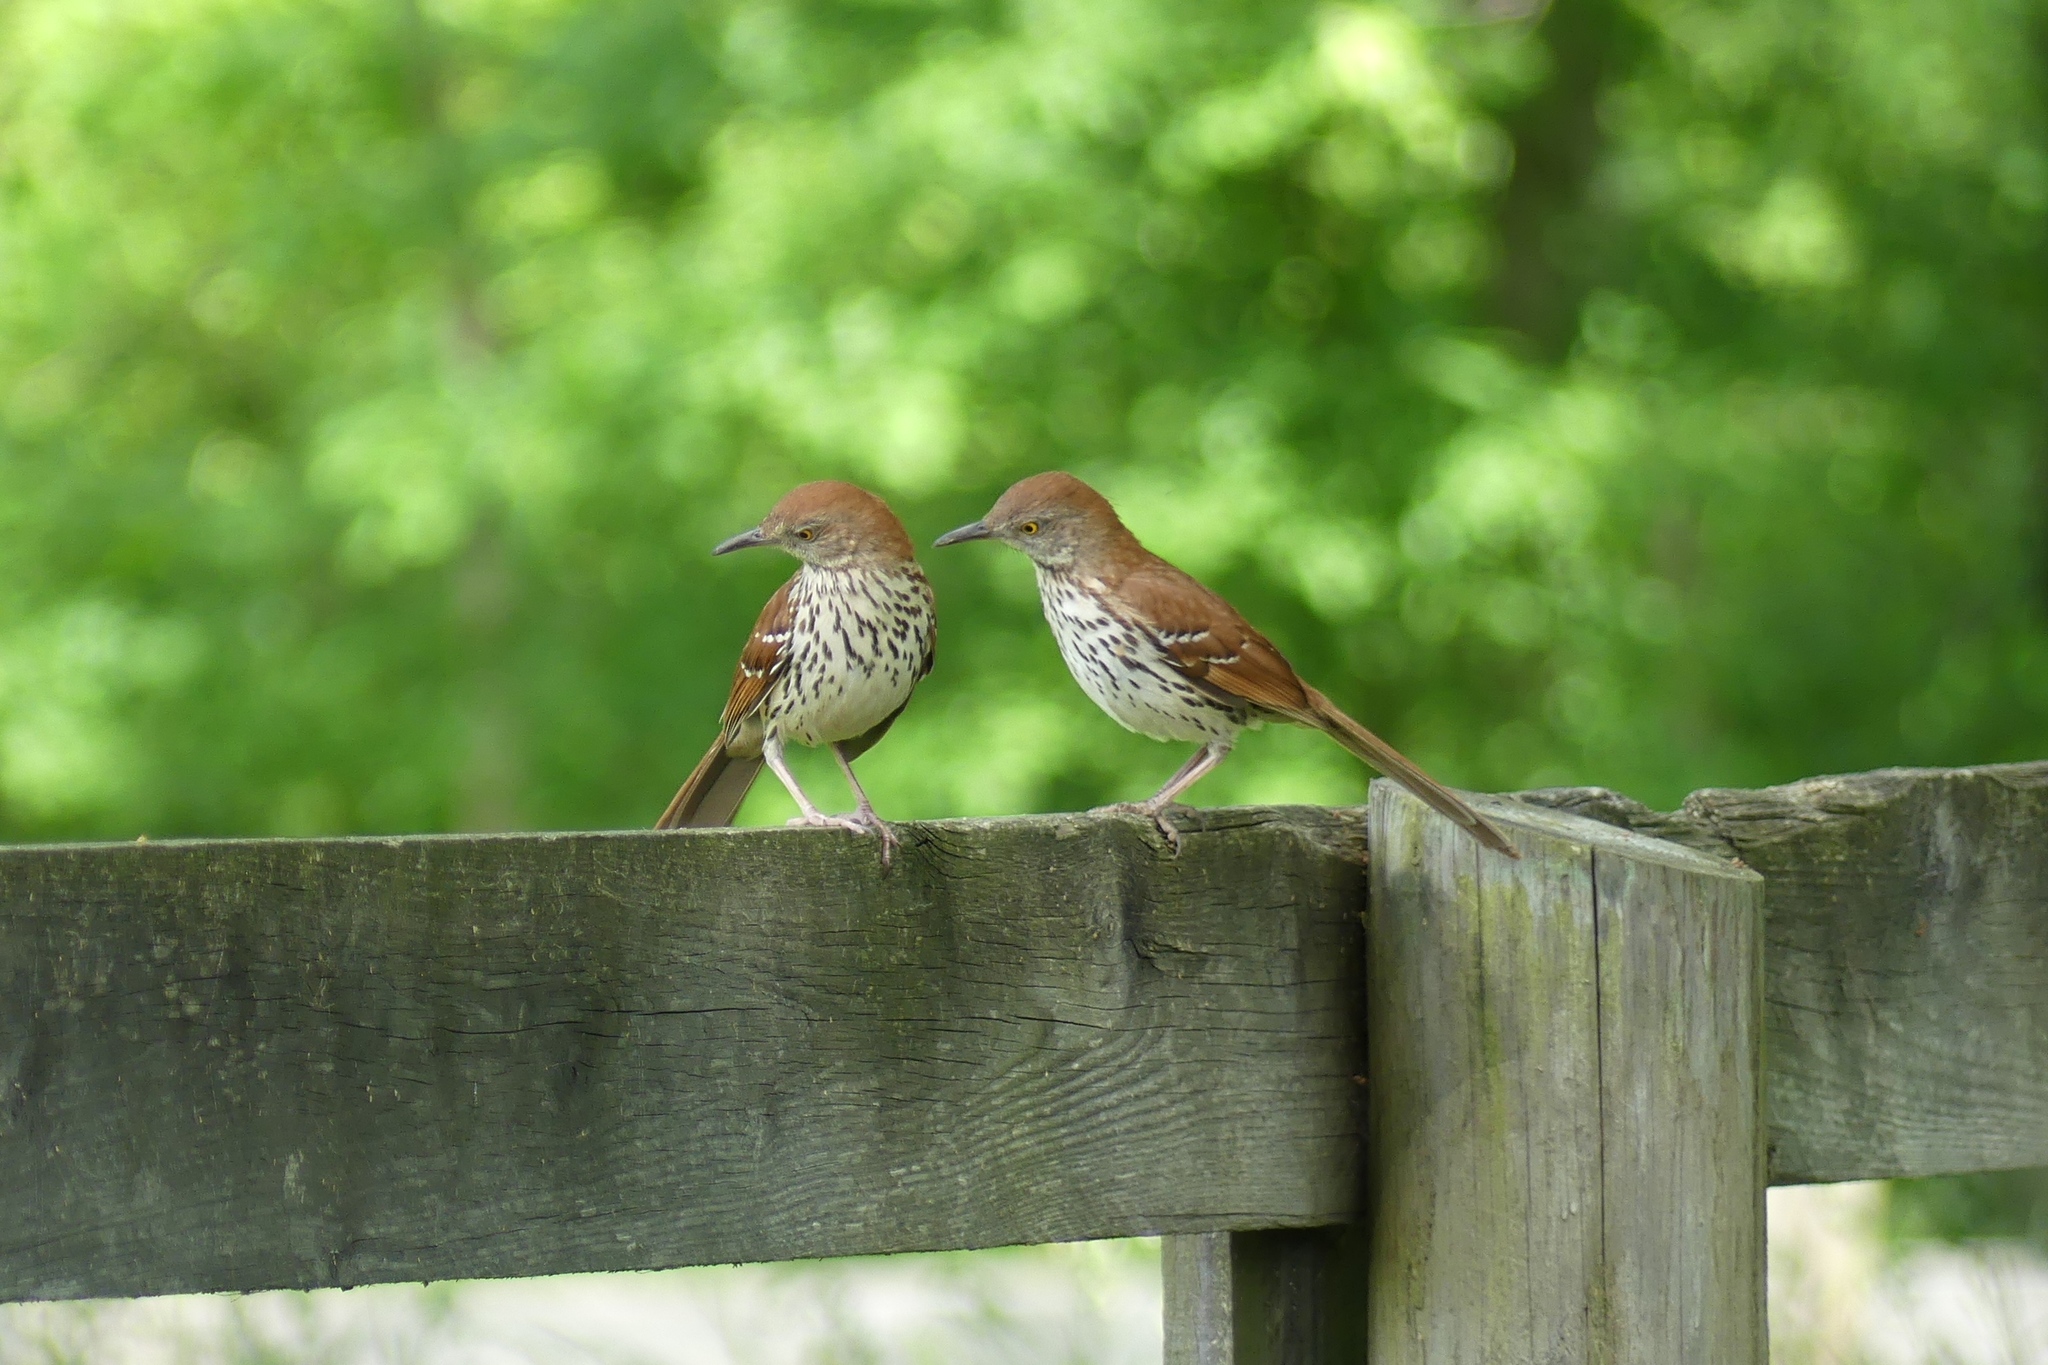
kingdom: Animalia
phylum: Chordata
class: Aves
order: Passeriformes
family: Mimidae
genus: Toxostoma
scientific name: Toxostoma rufum
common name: Brown thrasher
